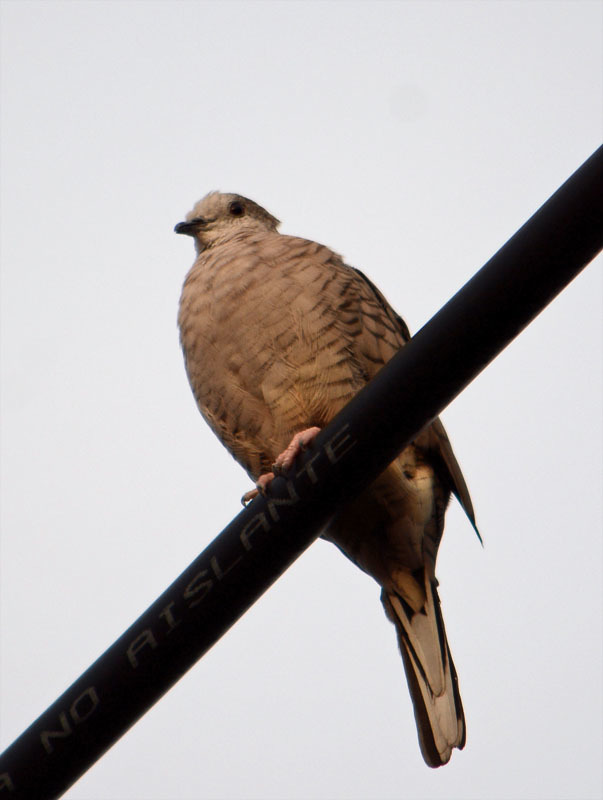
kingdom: Animalia
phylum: Chordata
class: Aves
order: Columbiformes
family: Columbidae
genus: Columbina
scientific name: Columbina inca
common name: Inca dove
